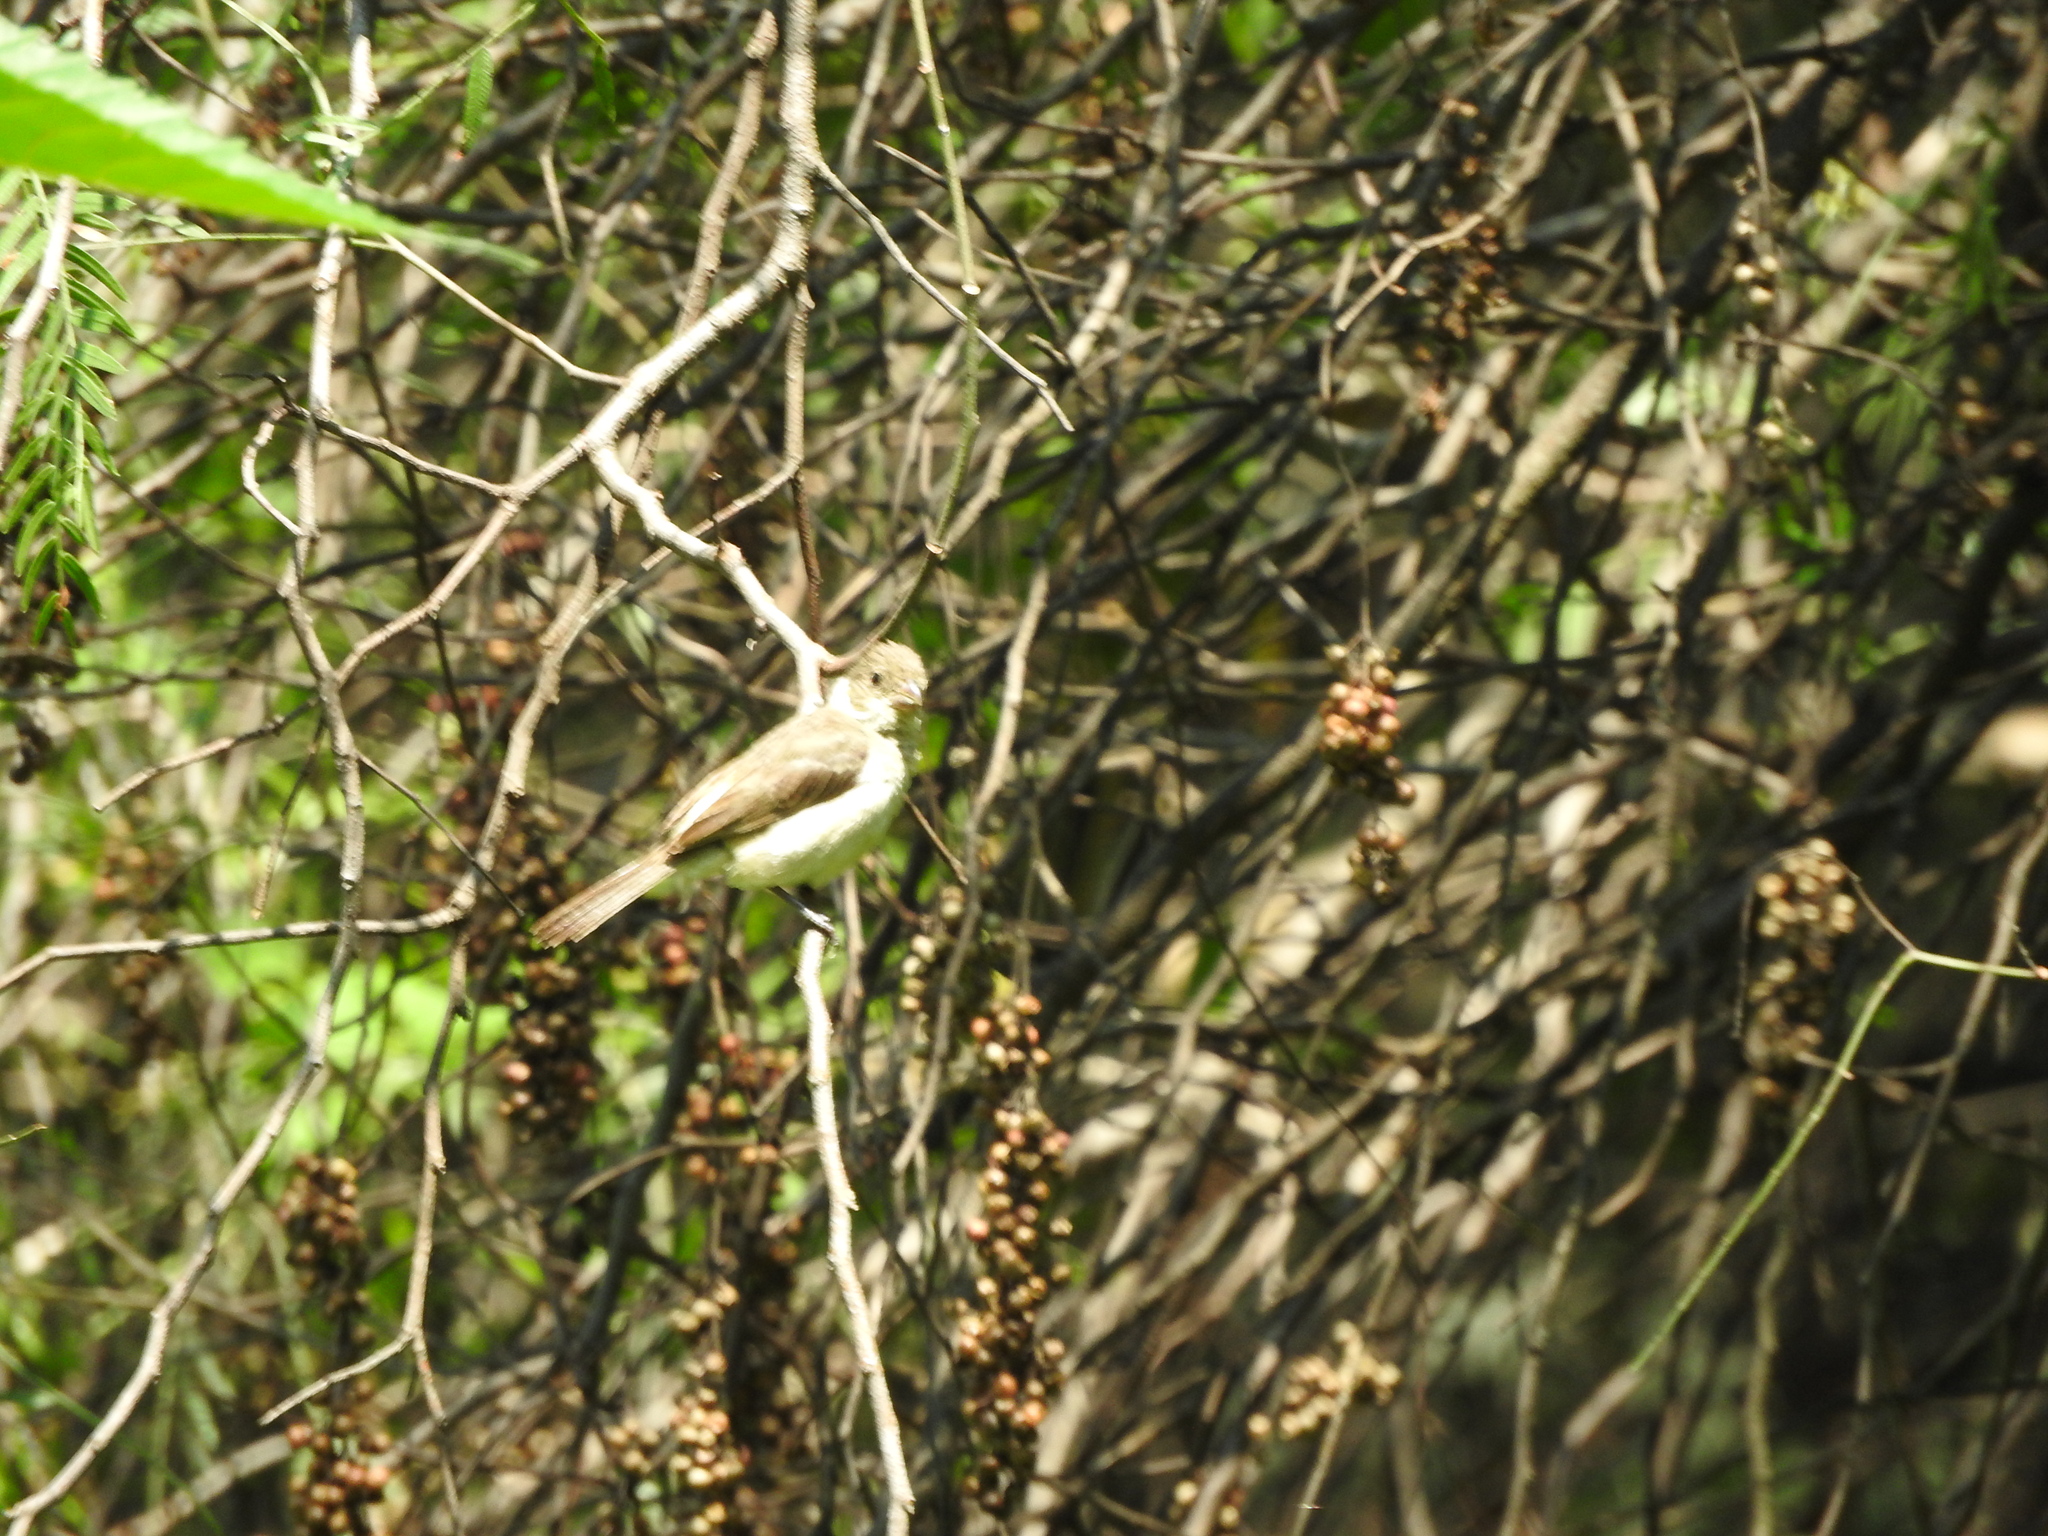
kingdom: Animalia
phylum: Chordata
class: Aves
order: Passeriformes
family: Thraupidae
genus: Sporophila
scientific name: Sporophila torqueola
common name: White-collared seedeater
